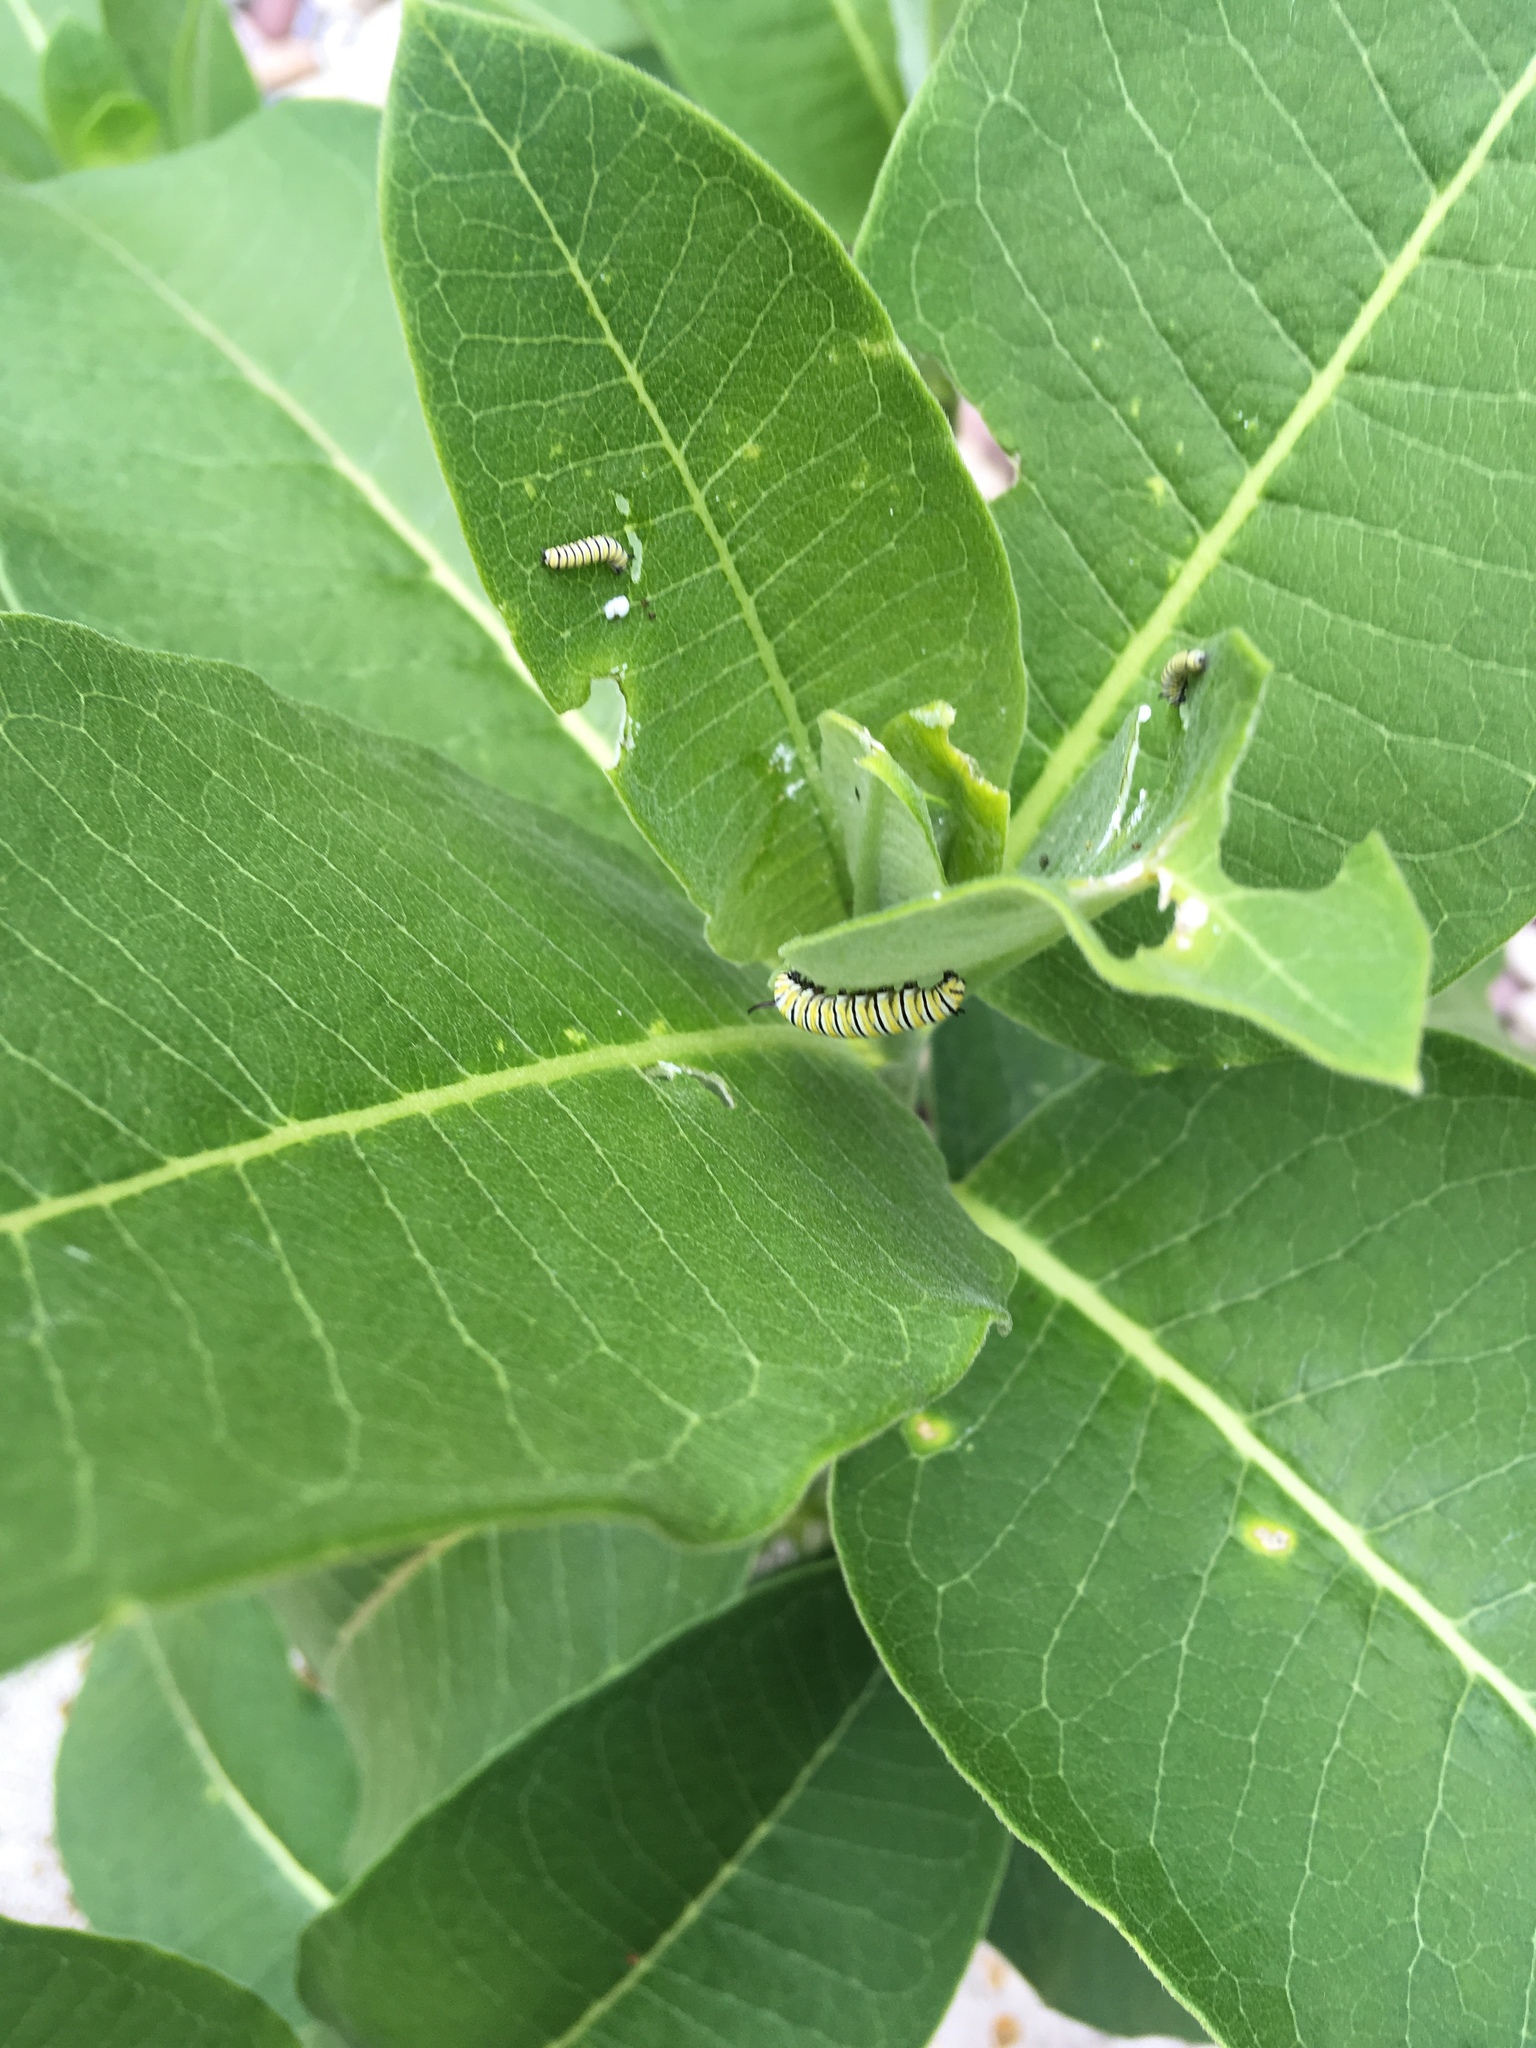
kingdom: Animalia
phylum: Arthropoda
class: Insecta
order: Lepidoptera
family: Nymphalidae
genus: Danaus
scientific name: Danaus plexippus
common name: Monarch
